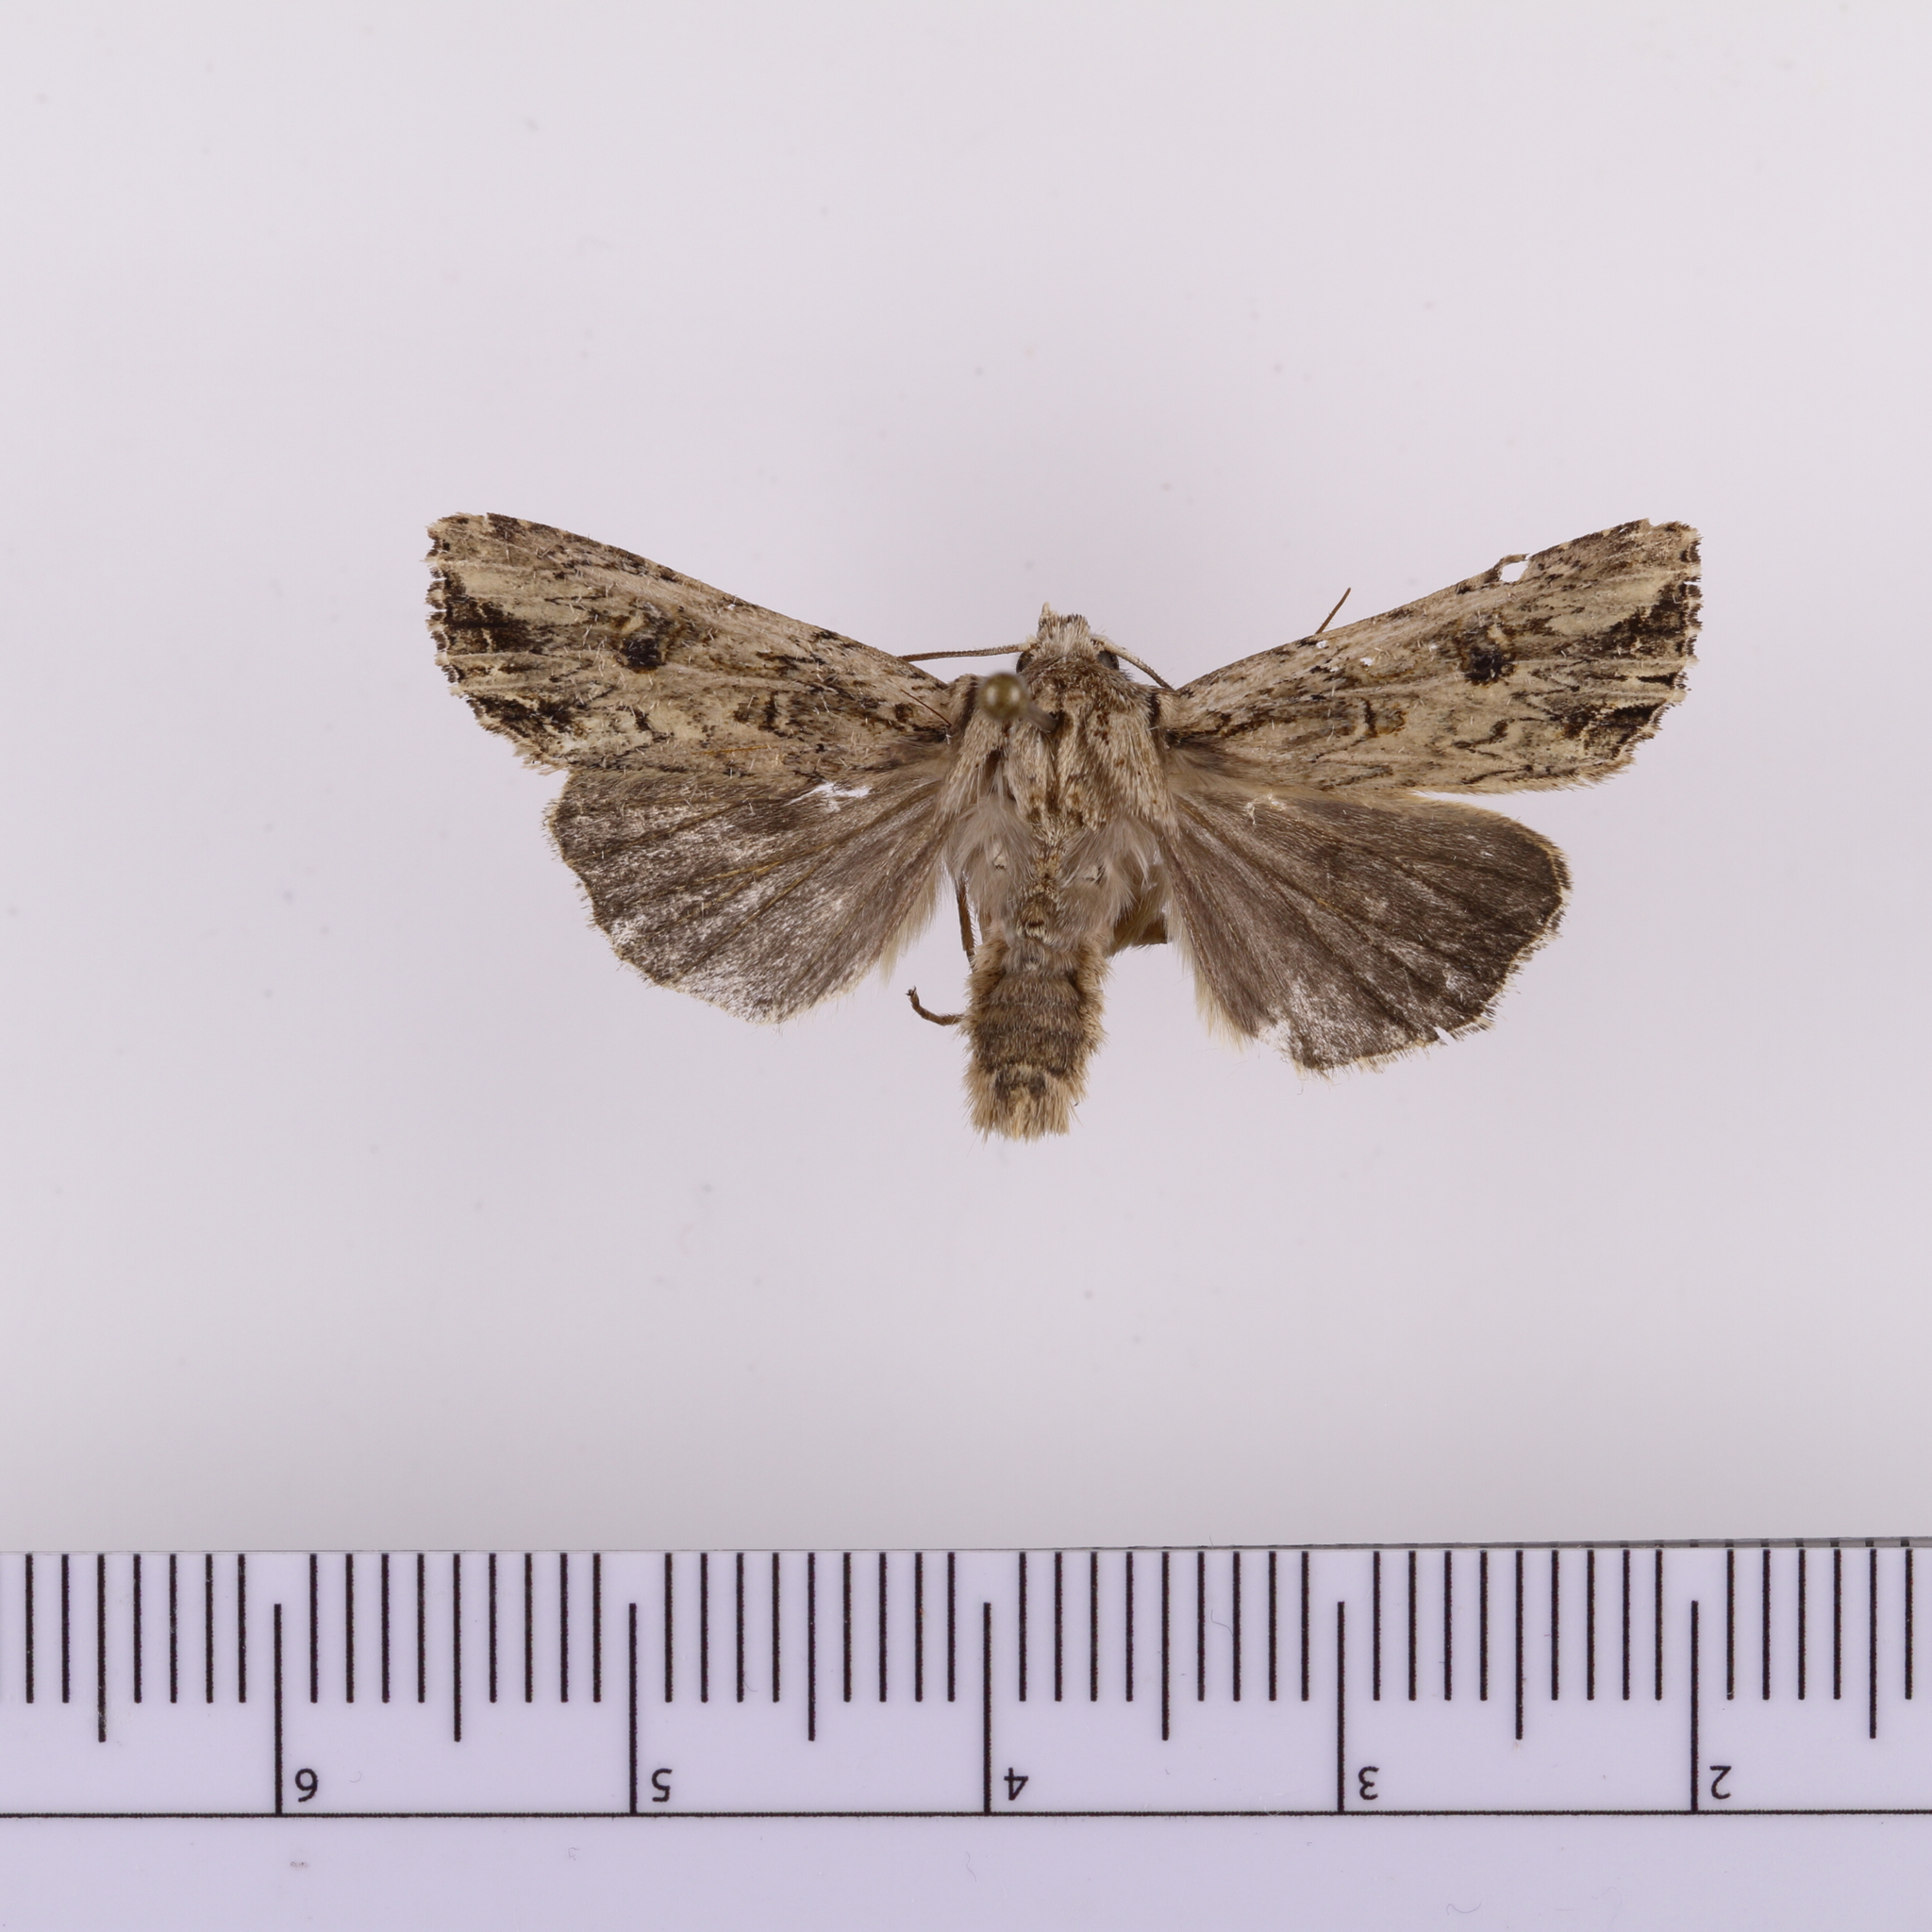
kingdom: Animalia
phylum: Arthropoda
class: Insecta
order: Lepidoptera
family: Noctuidae
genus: Ichneutica
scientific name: Ichneutica lignana
